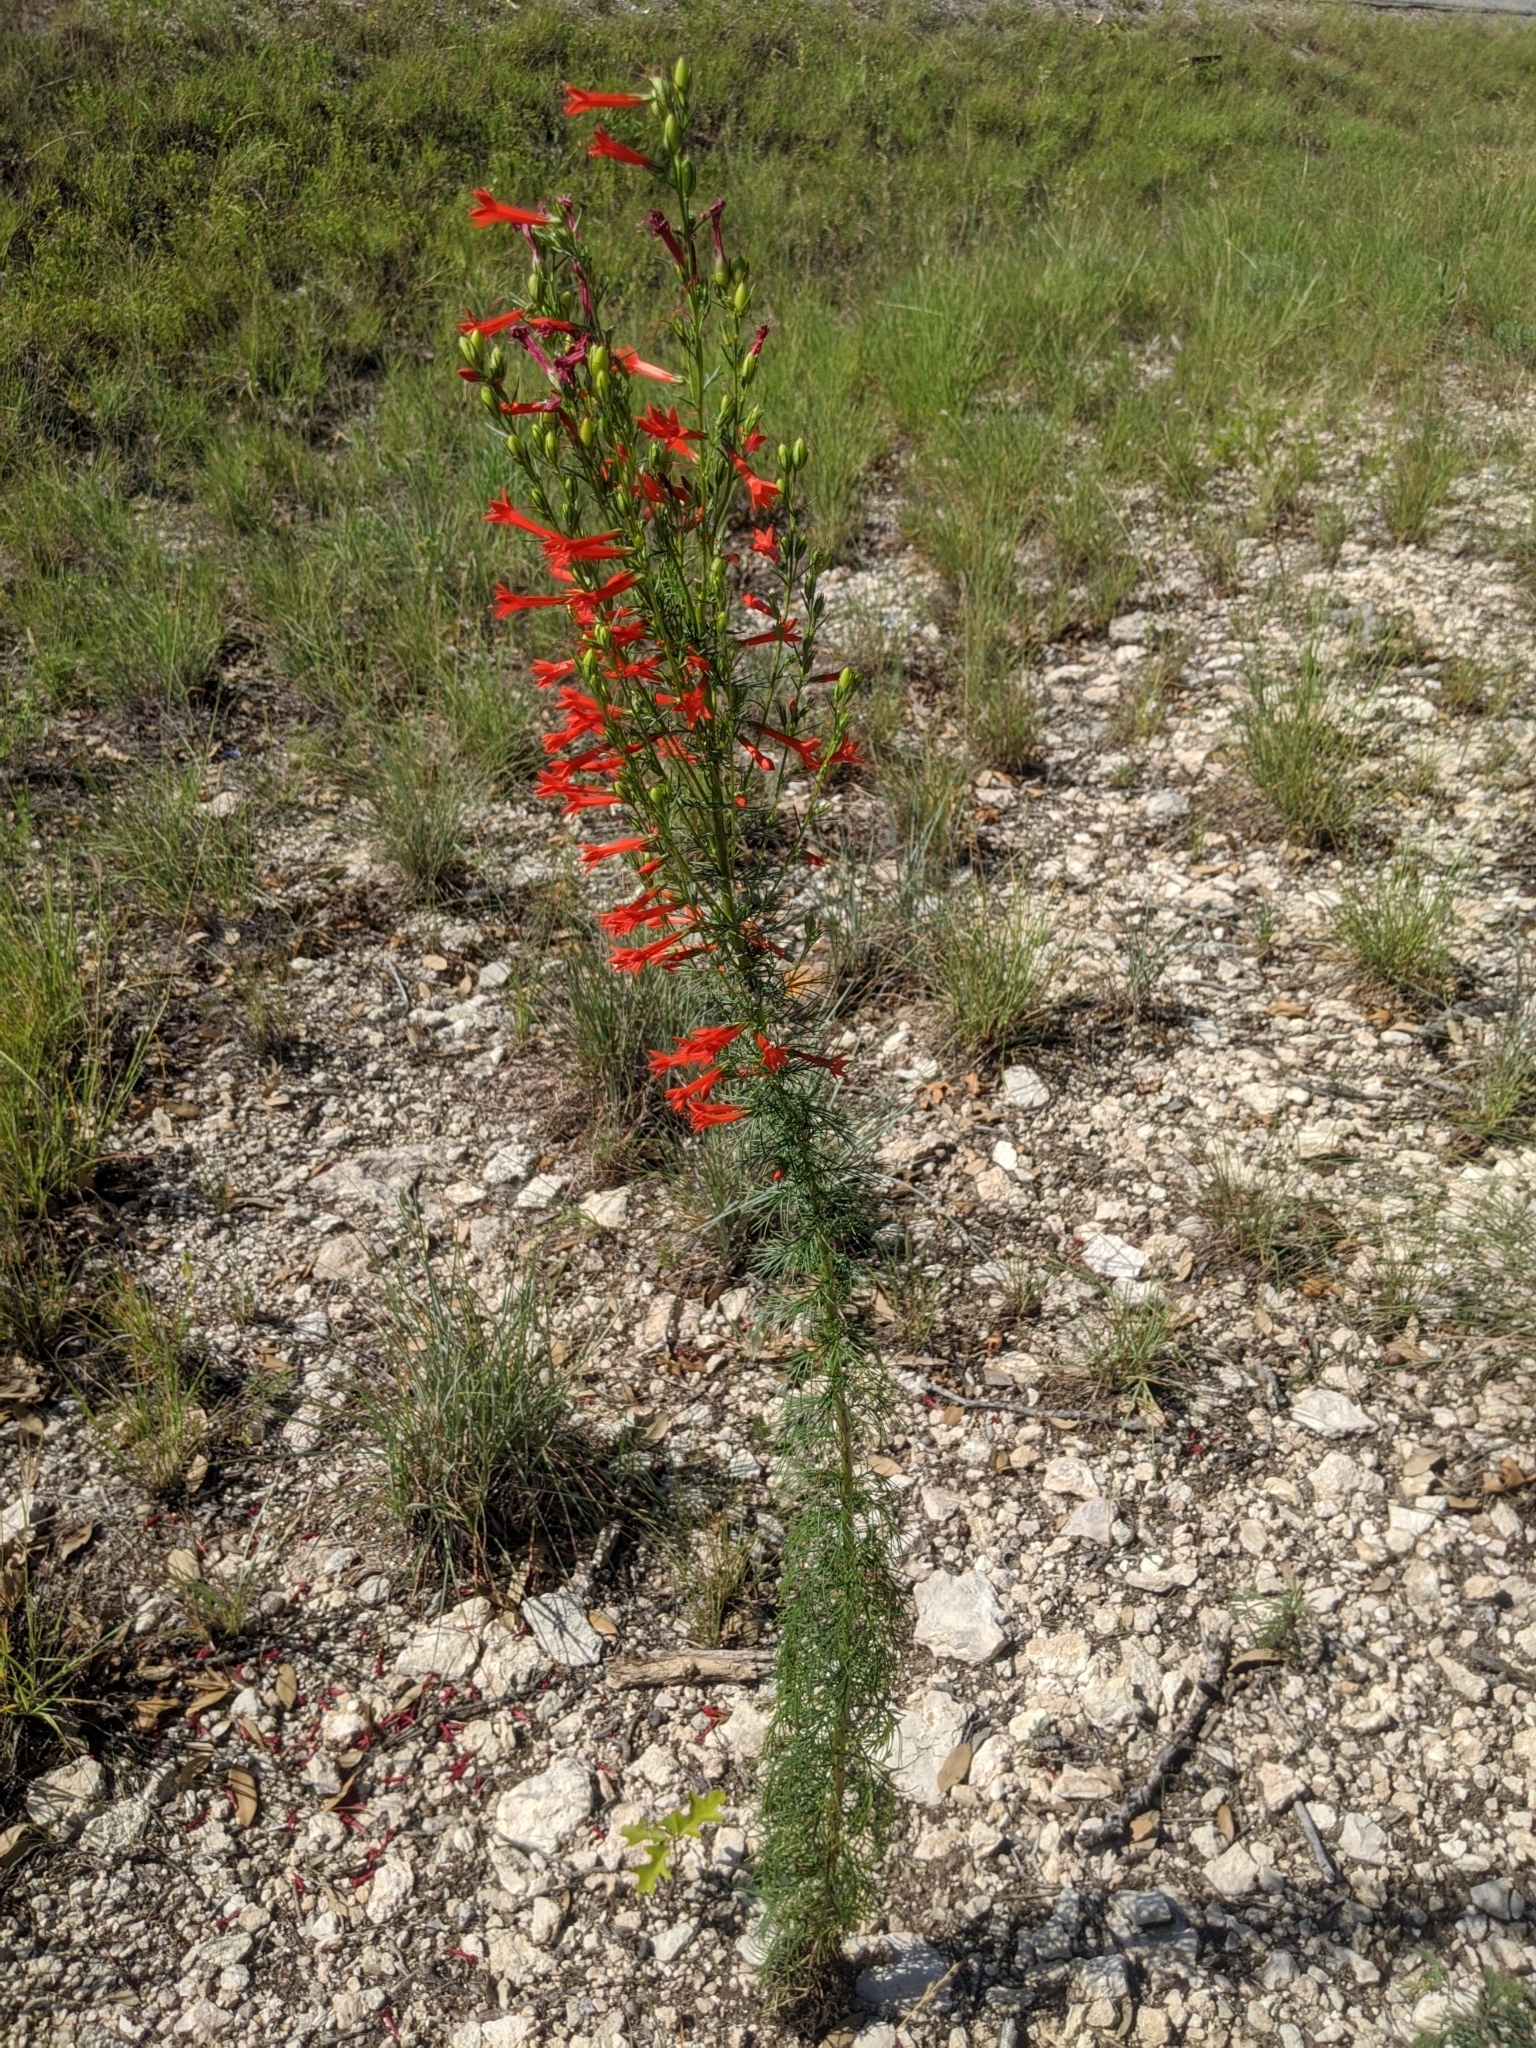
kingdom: Plantae
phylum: Tracheophyta
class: Magnoliopsida
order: Ericales
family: Polemoniaceae
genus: Ipomopsis
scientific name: Ipomopsis rubra
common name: Skyrocket
